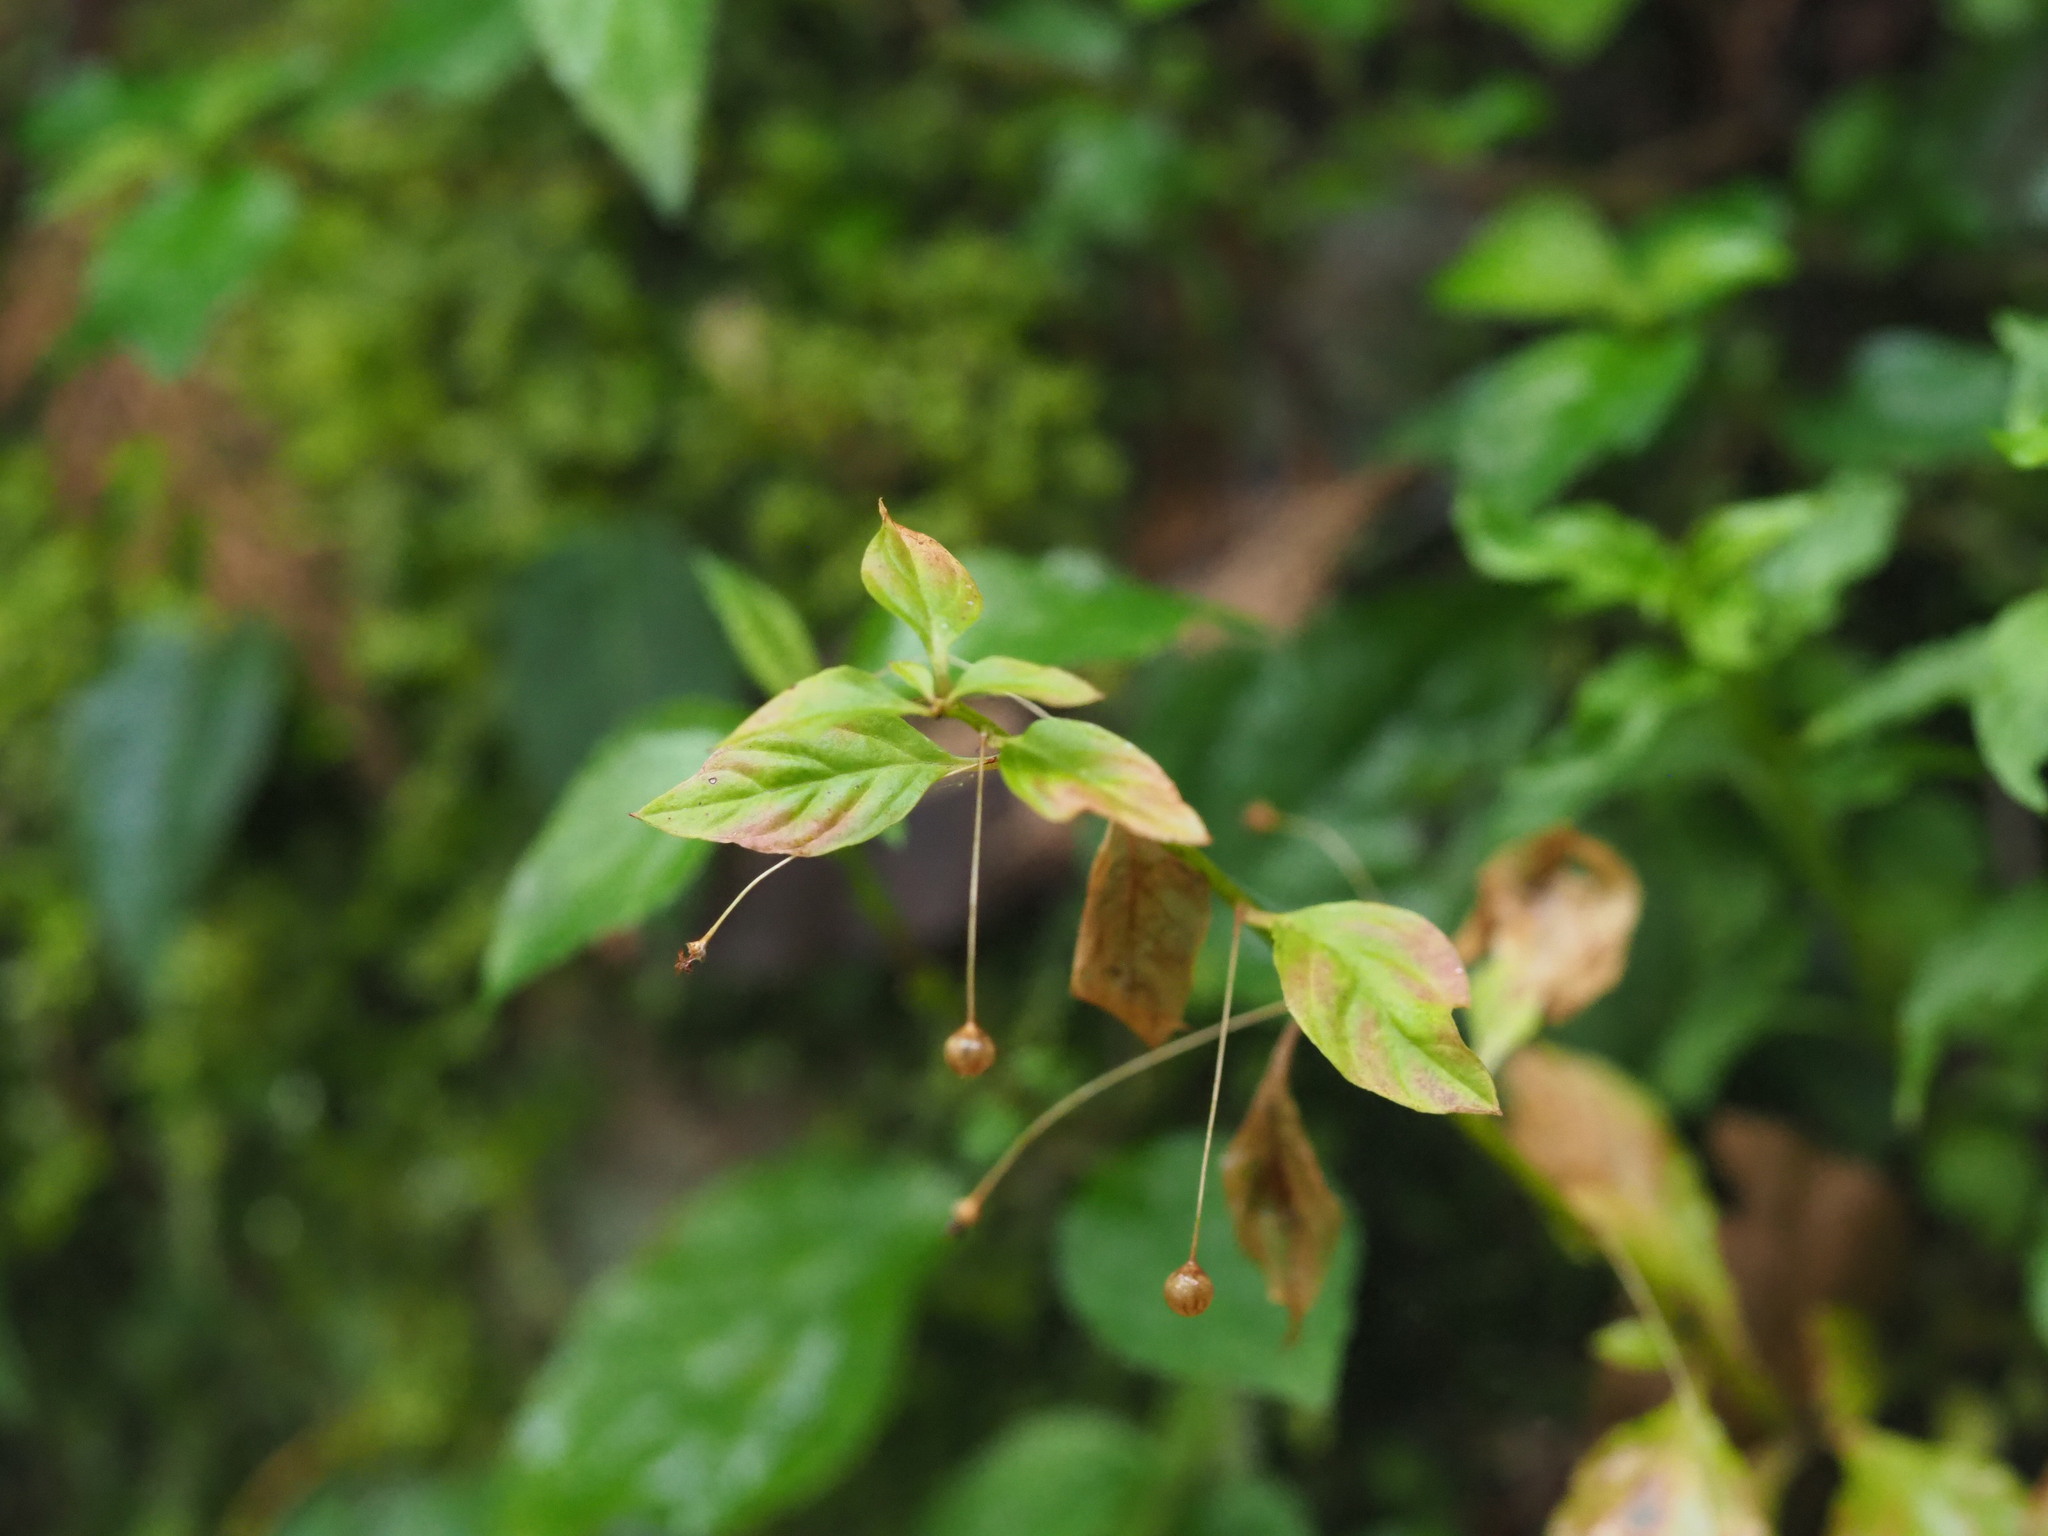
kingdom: Plantae
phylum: Tracheophyta
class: Magnoliopsida
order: Ericales
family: Primulaceae
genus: Lysimachia
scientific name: Lysimachia ardisioides
